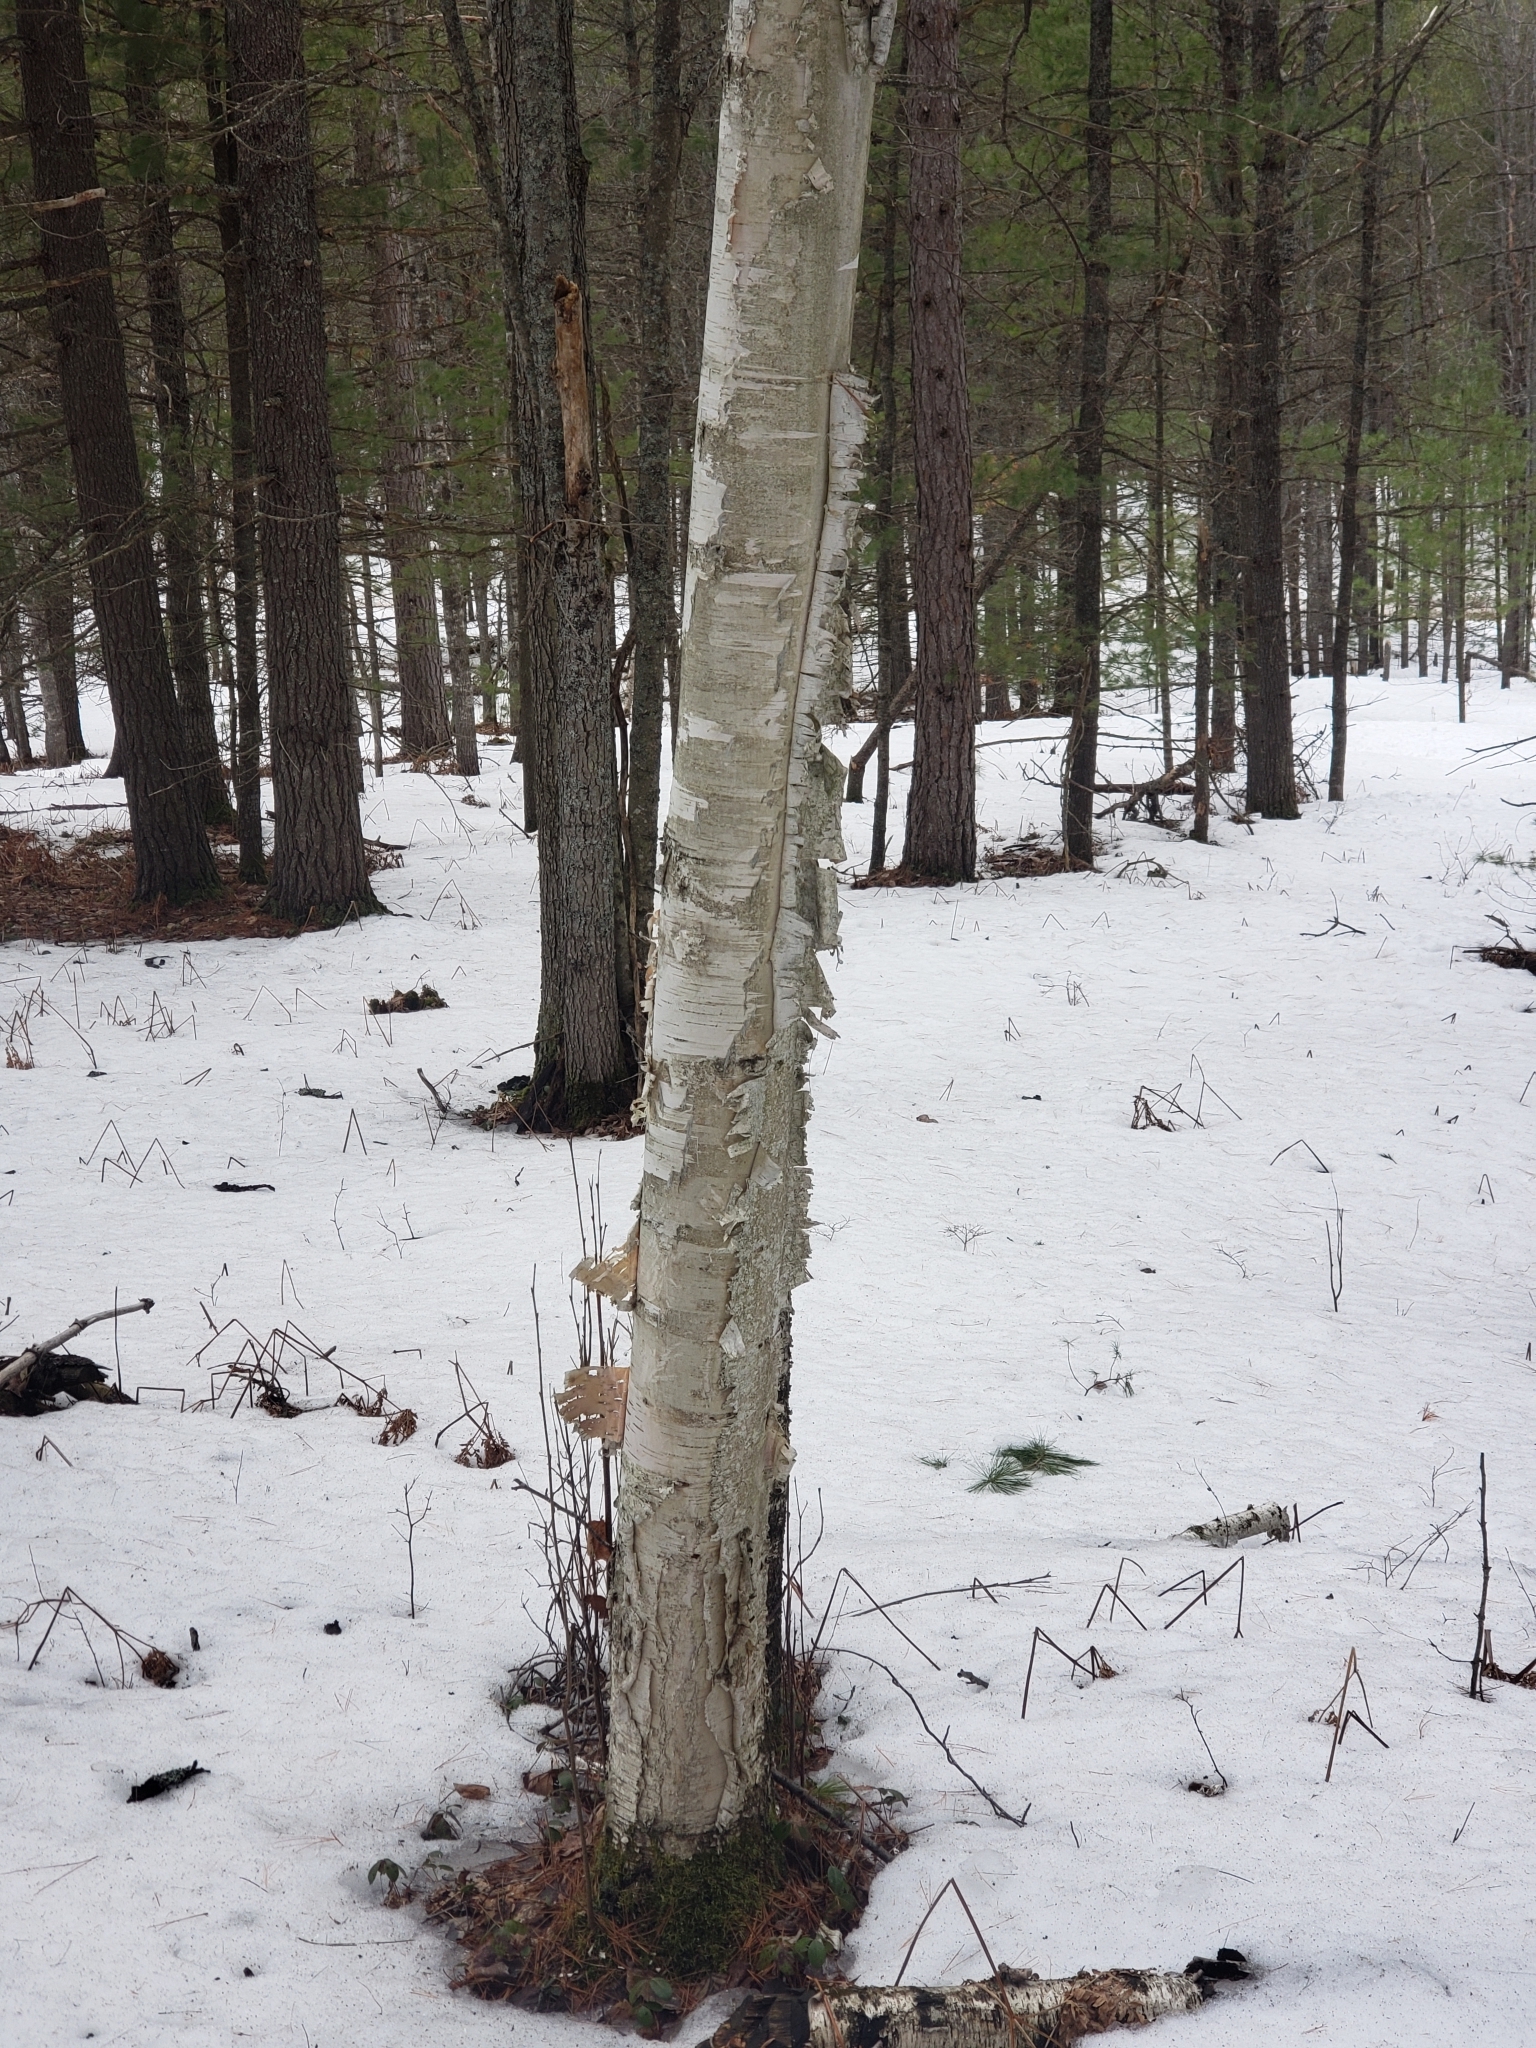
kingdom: Plantae
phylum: Tracheophyta
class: Magnoliopsida
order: Fagales
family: Betulaceae
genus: Betula
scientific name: Betula papyrifera
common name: Paper birch
